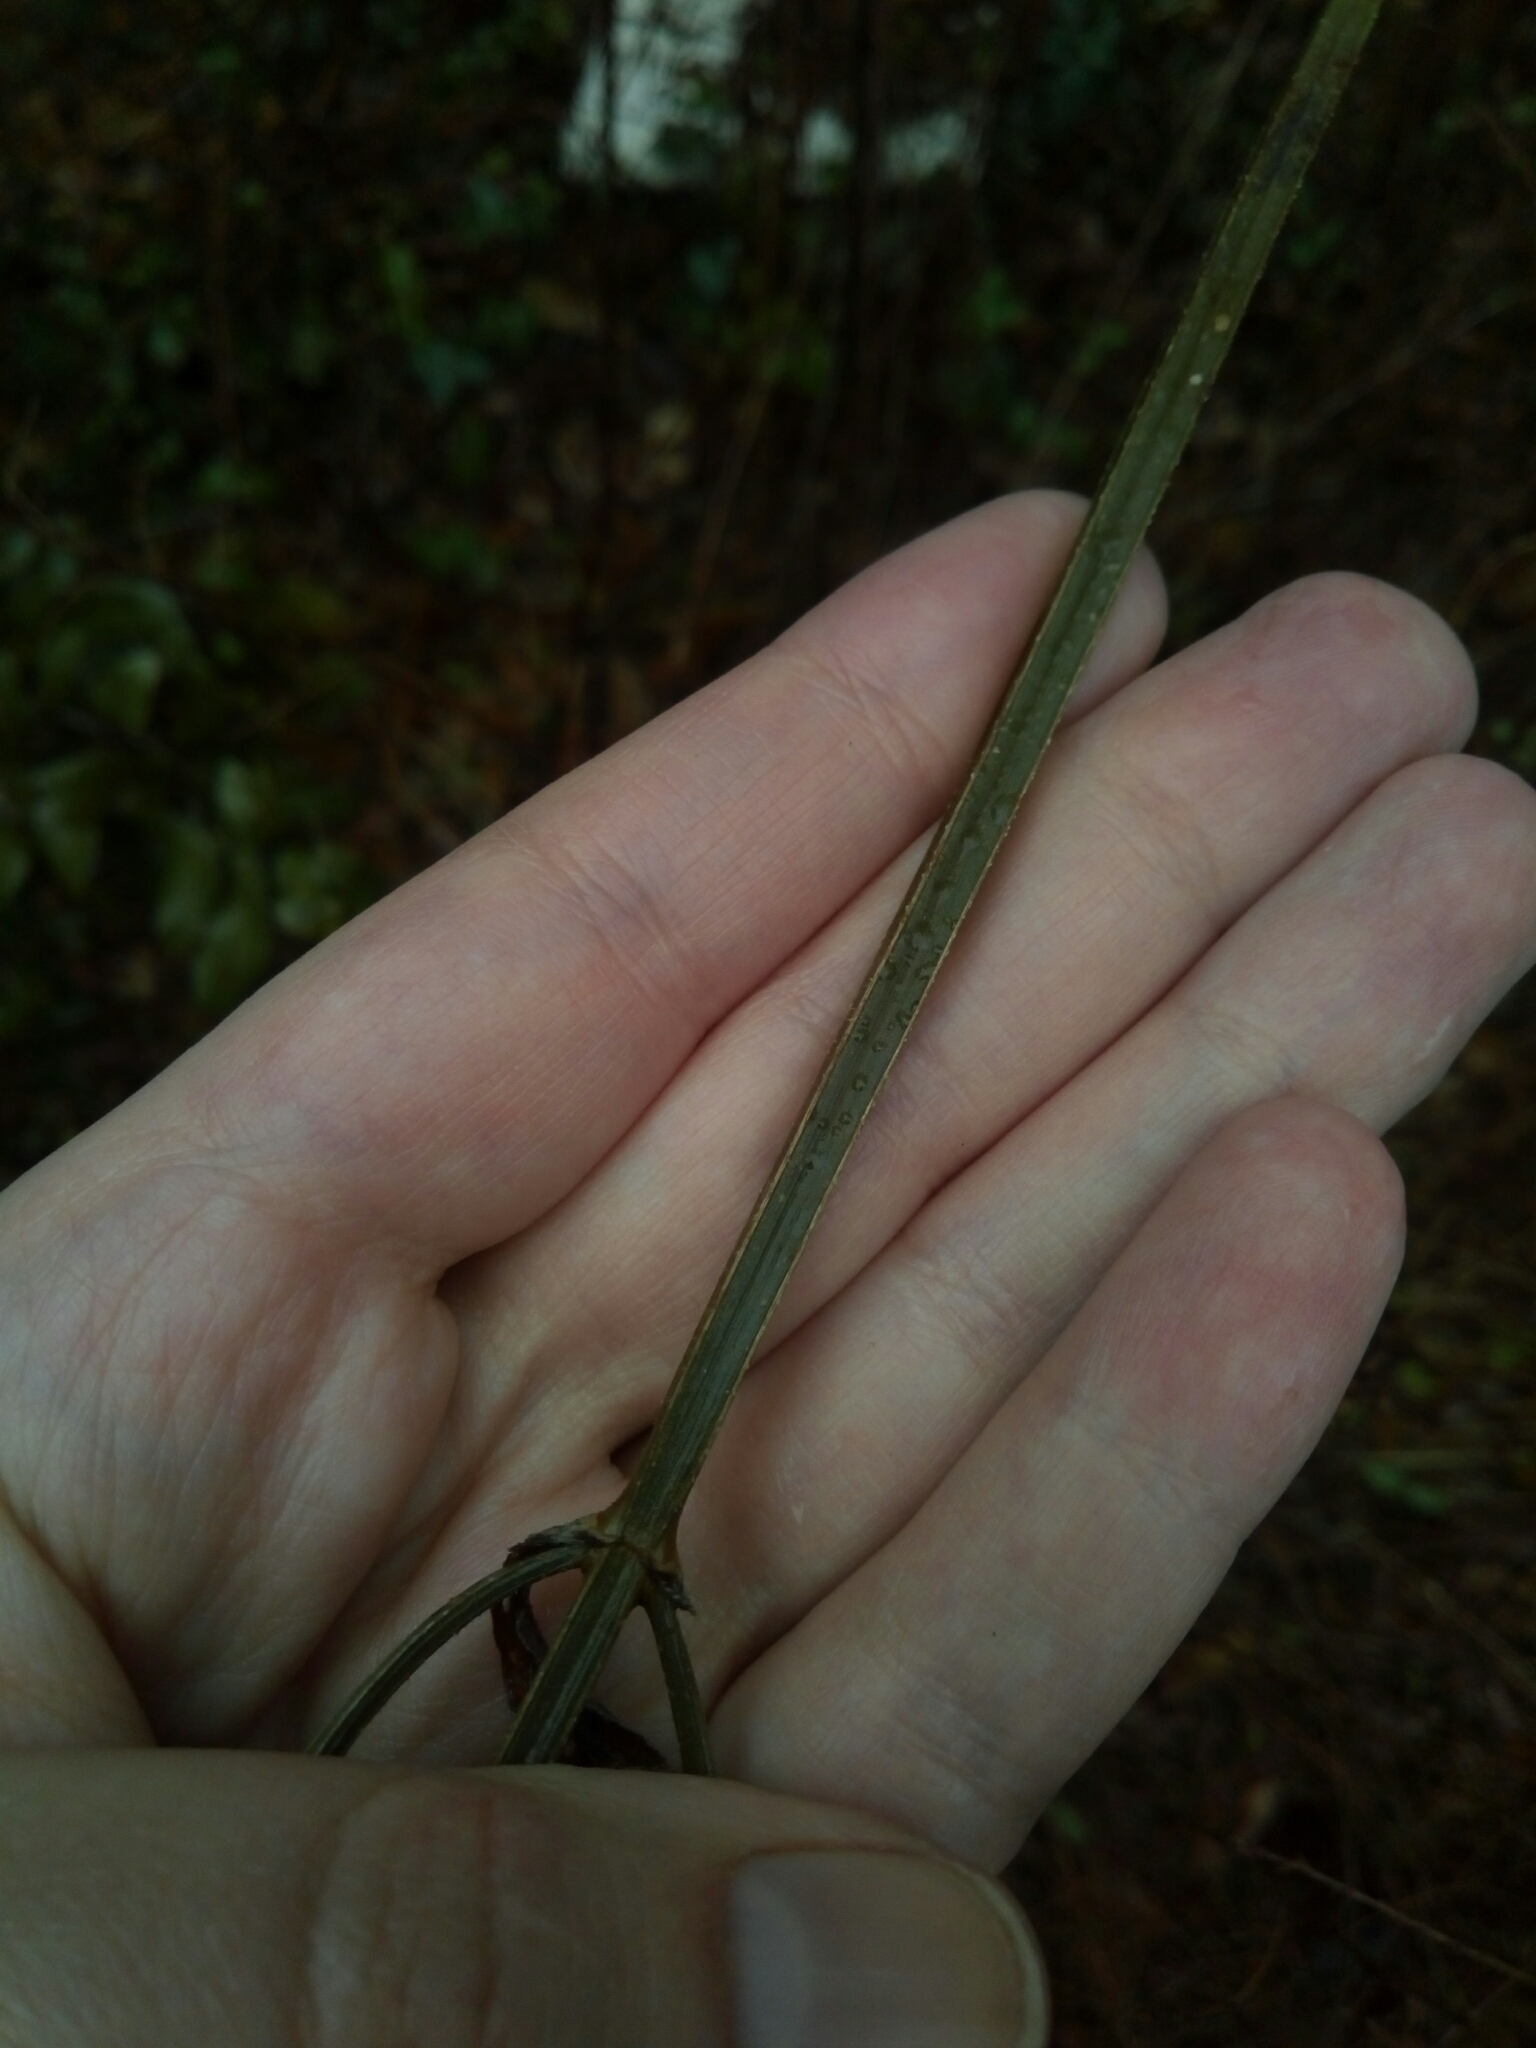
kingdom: Plantae
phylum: Tracheophyta
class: Magnoliopsida
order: Lamiales
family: Verbenaceae
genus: Verbena
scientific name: Verbena brasiliensis
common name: Brazilian vervain
